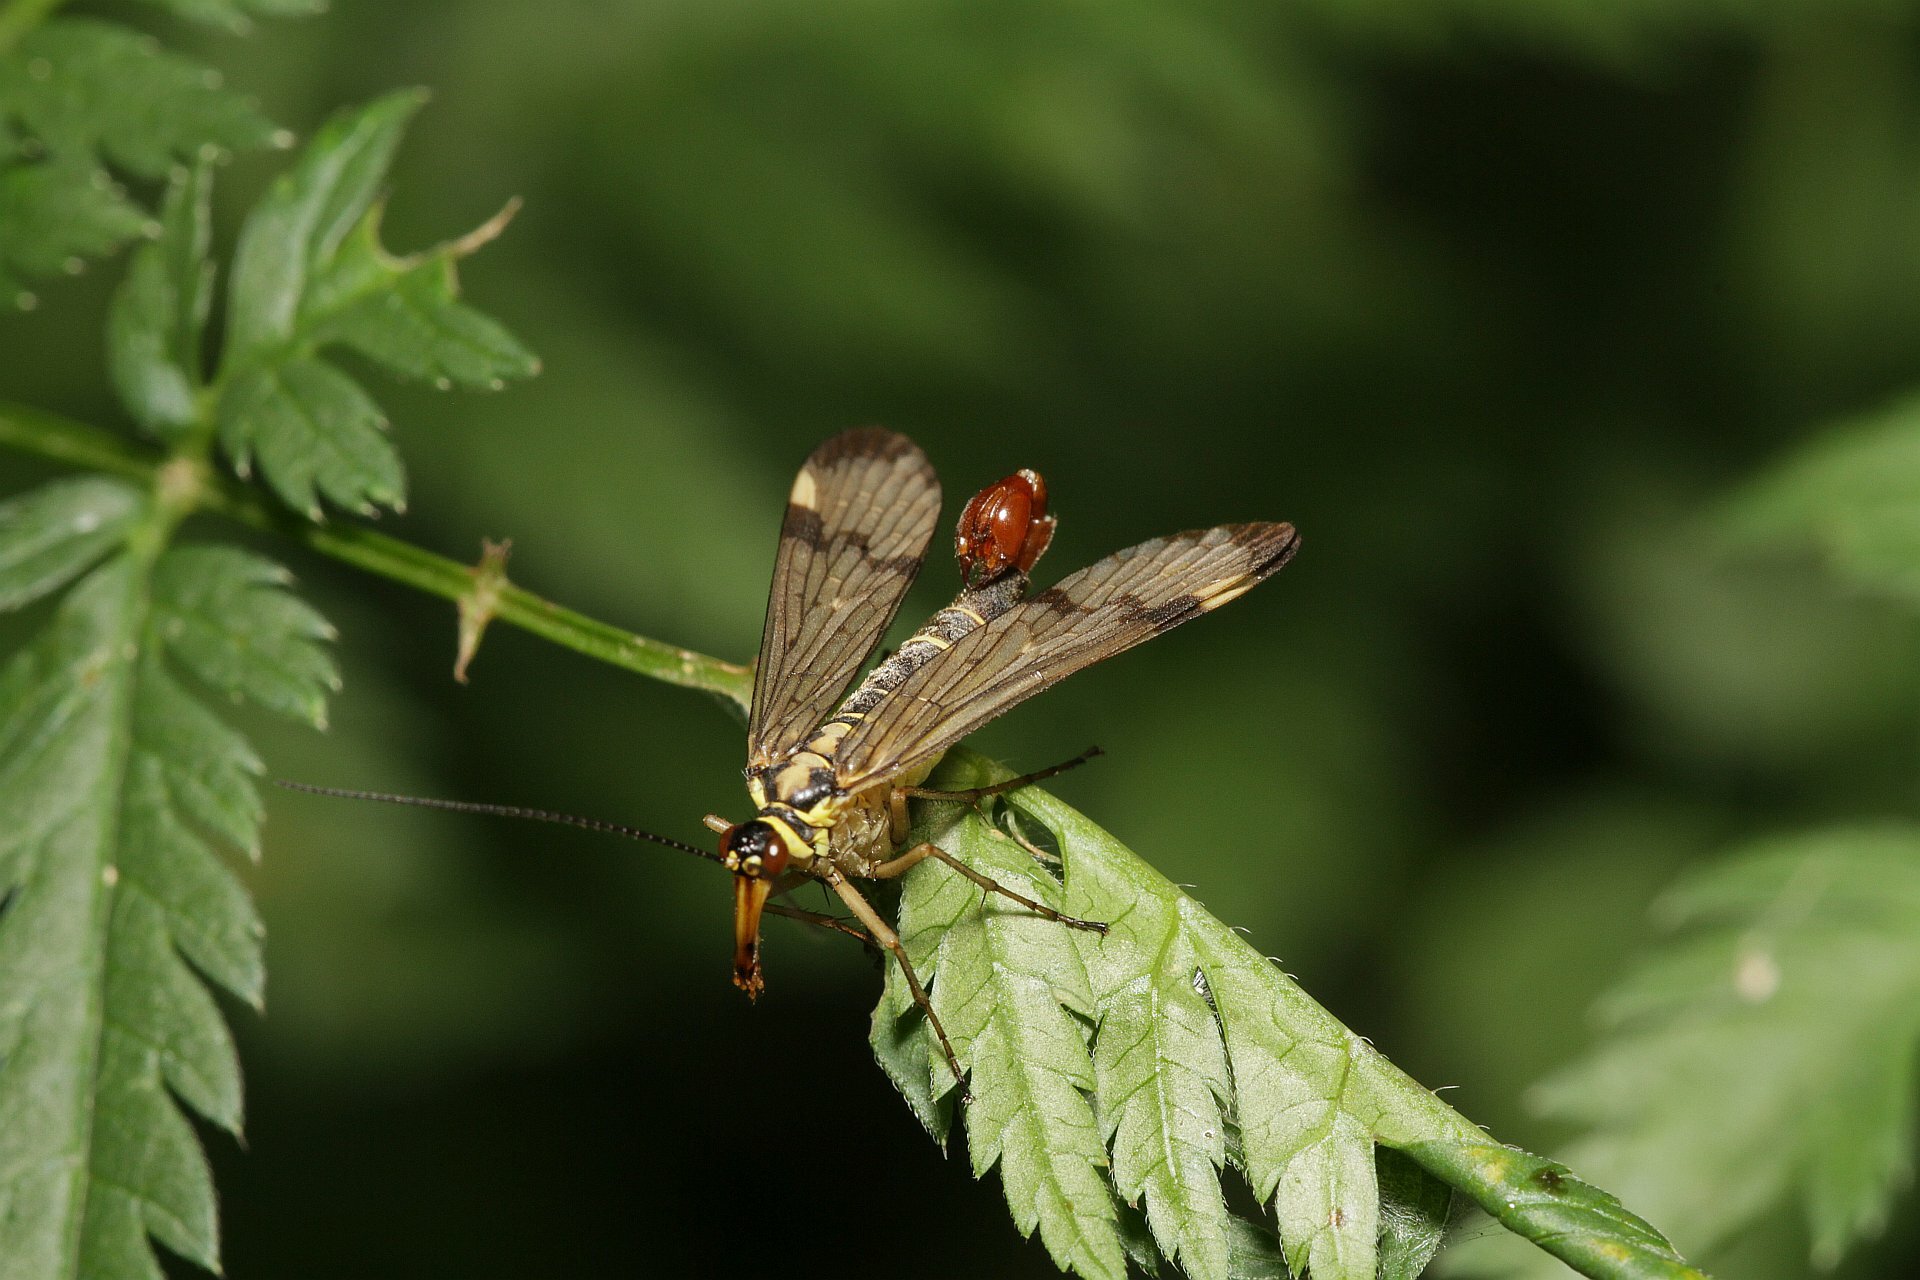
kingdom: Animalia
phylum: Arthropoda
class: Insecta
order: Mecoptera
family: Panorpidae
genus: Panorpa
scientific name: Panorpa communis
